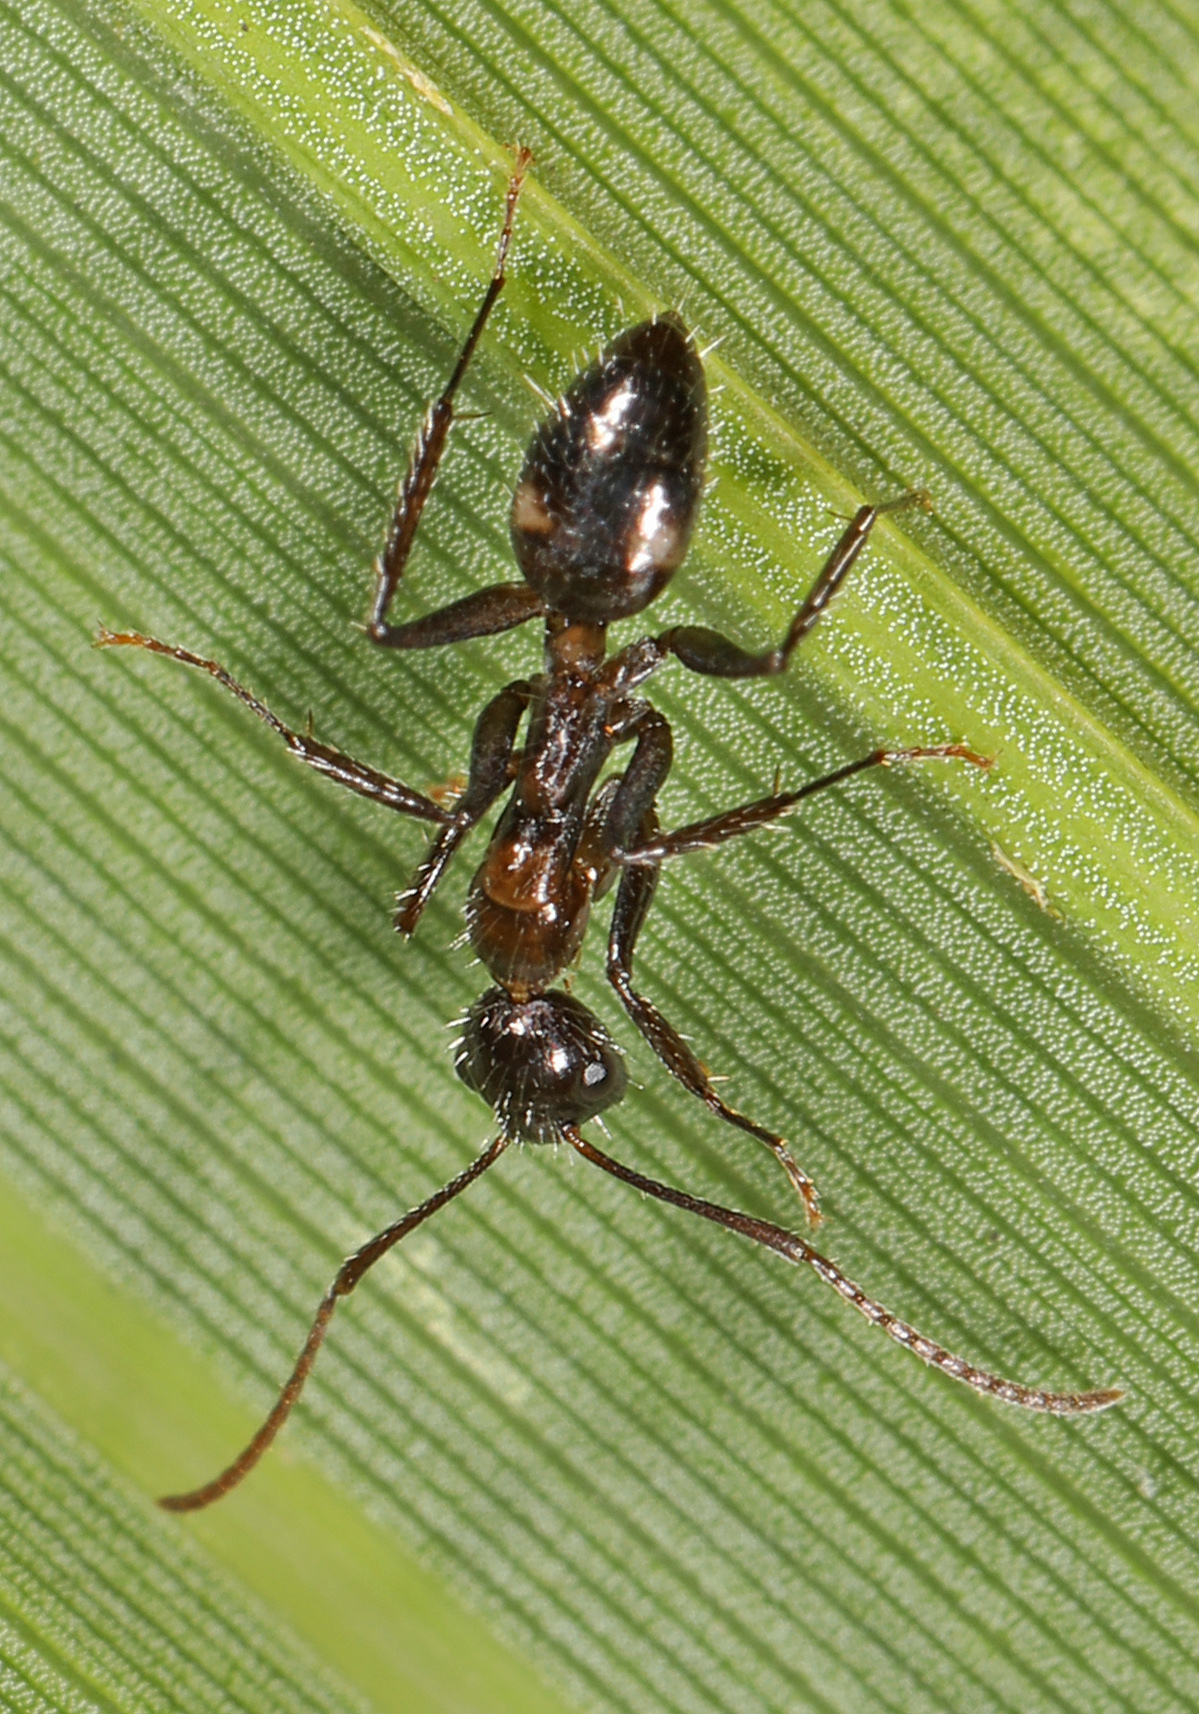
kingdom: Animalia
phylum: Arthropoda
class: Insecta
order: Hymenoptera
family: Formicidae
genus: Camponotus
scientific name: Camponotus sexguttatus
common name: Neotropical carpenter ant
